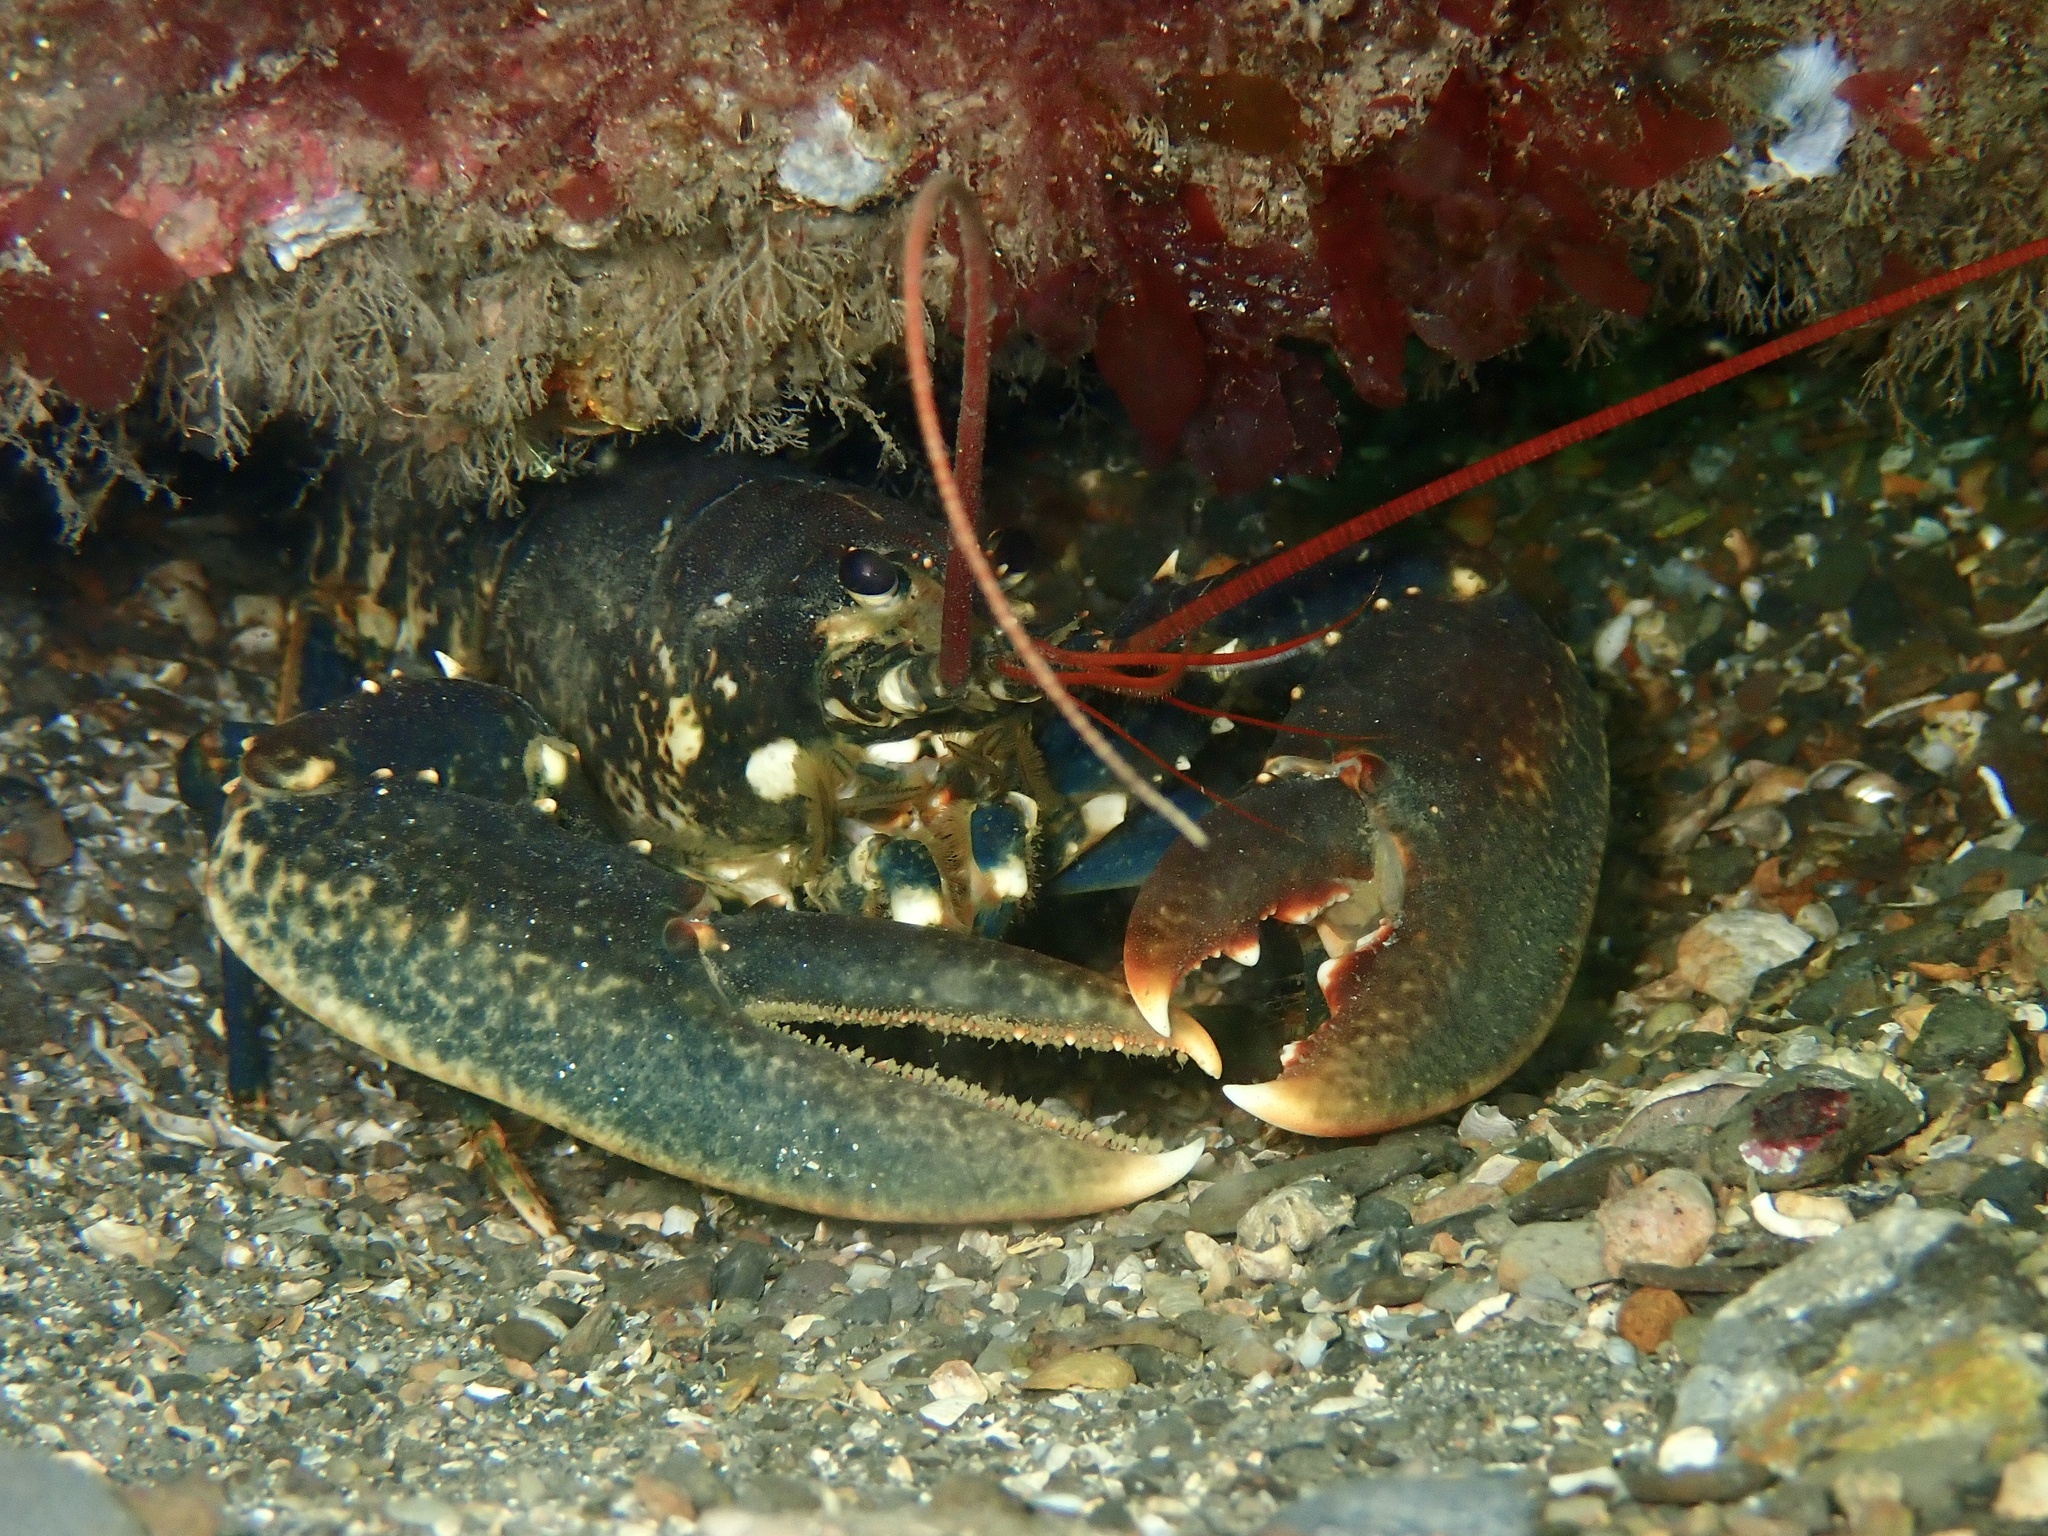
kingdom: Animalia
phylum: Arthropoda
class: Malacostraca
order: Decapoda
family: Nephropidae
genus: Homarus
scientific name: Homarus gammarus
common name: European lobster
